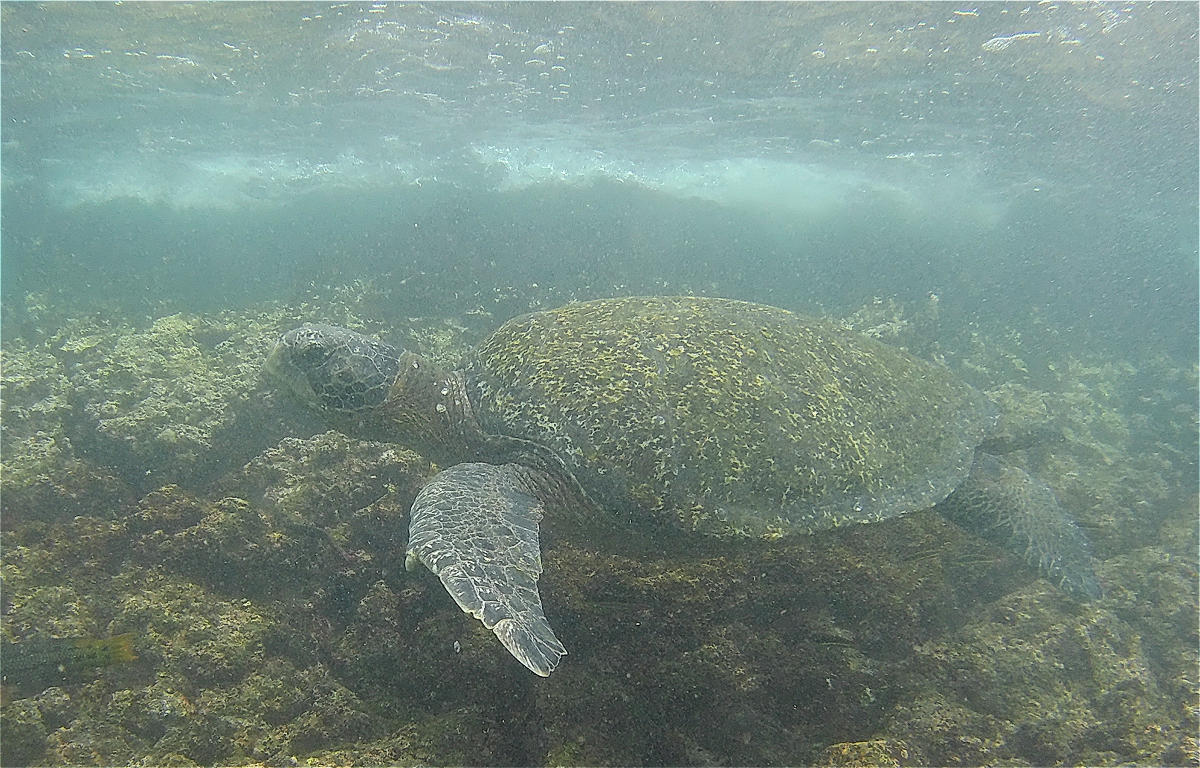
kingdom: Animalia
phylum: Chordata
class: Testudines
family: Cheloniidae
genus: Chelonia
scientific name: Chelonia mydas
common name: Green turtle
